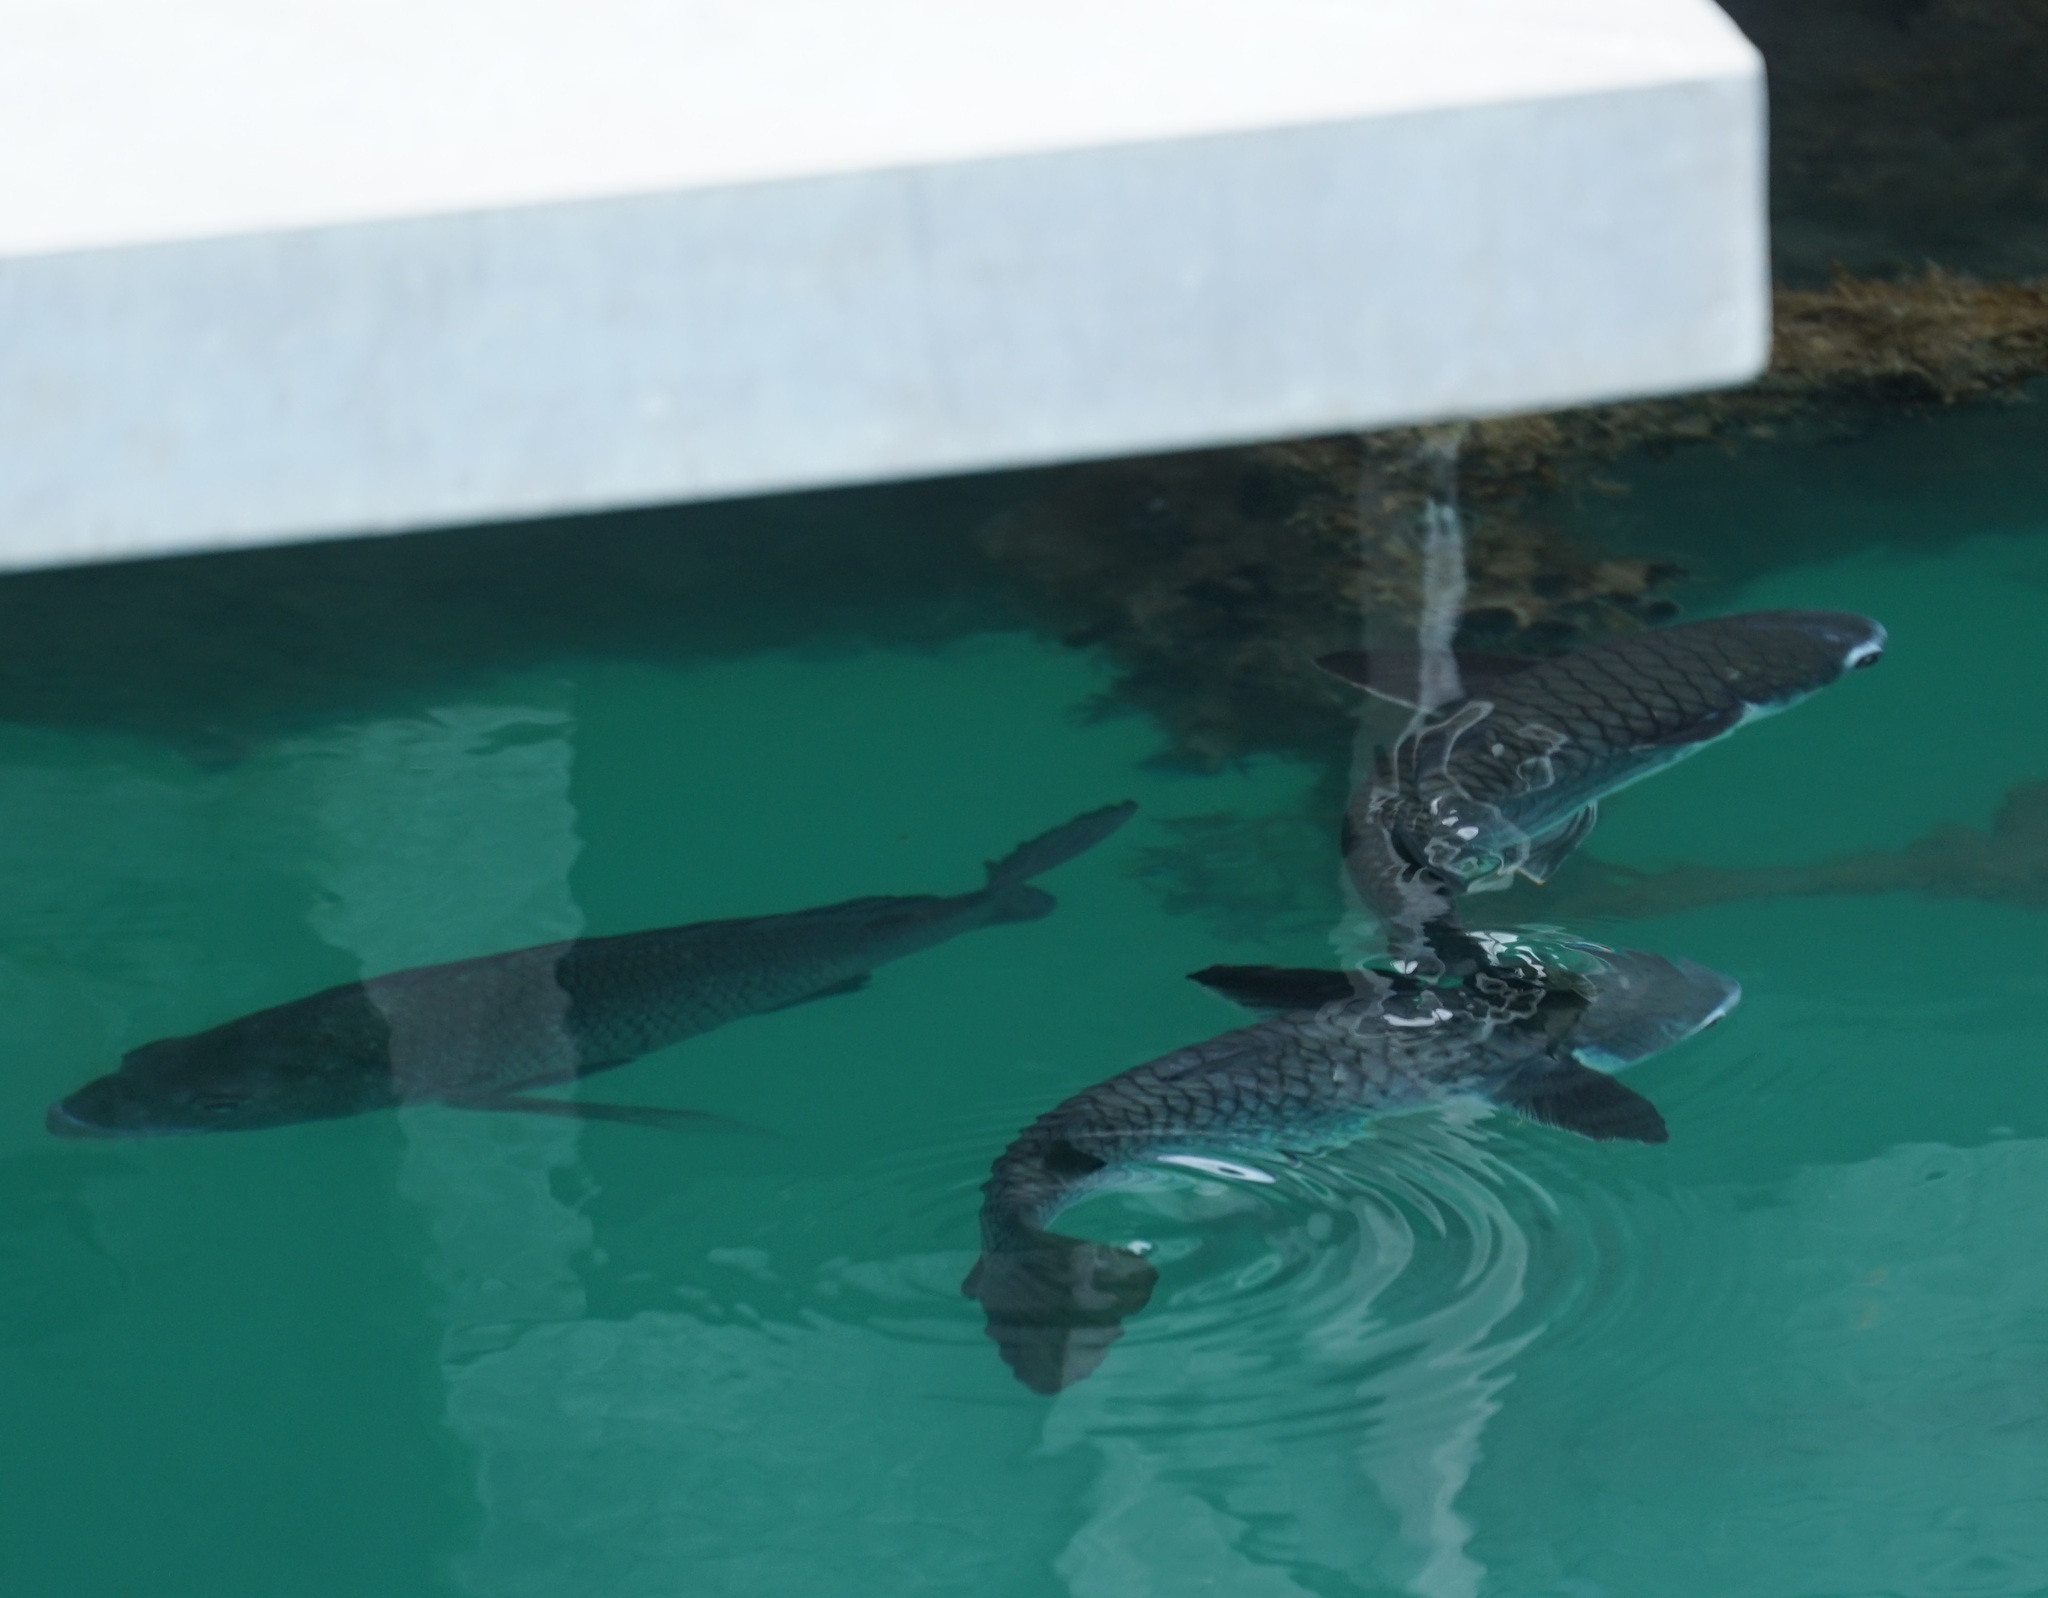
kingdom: Animalia
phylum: Chordata
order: Mugiliformes
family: Mugilidae
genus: Ellochelon
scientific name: Ellochelon vaigiensis
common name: Squaretail mullet
